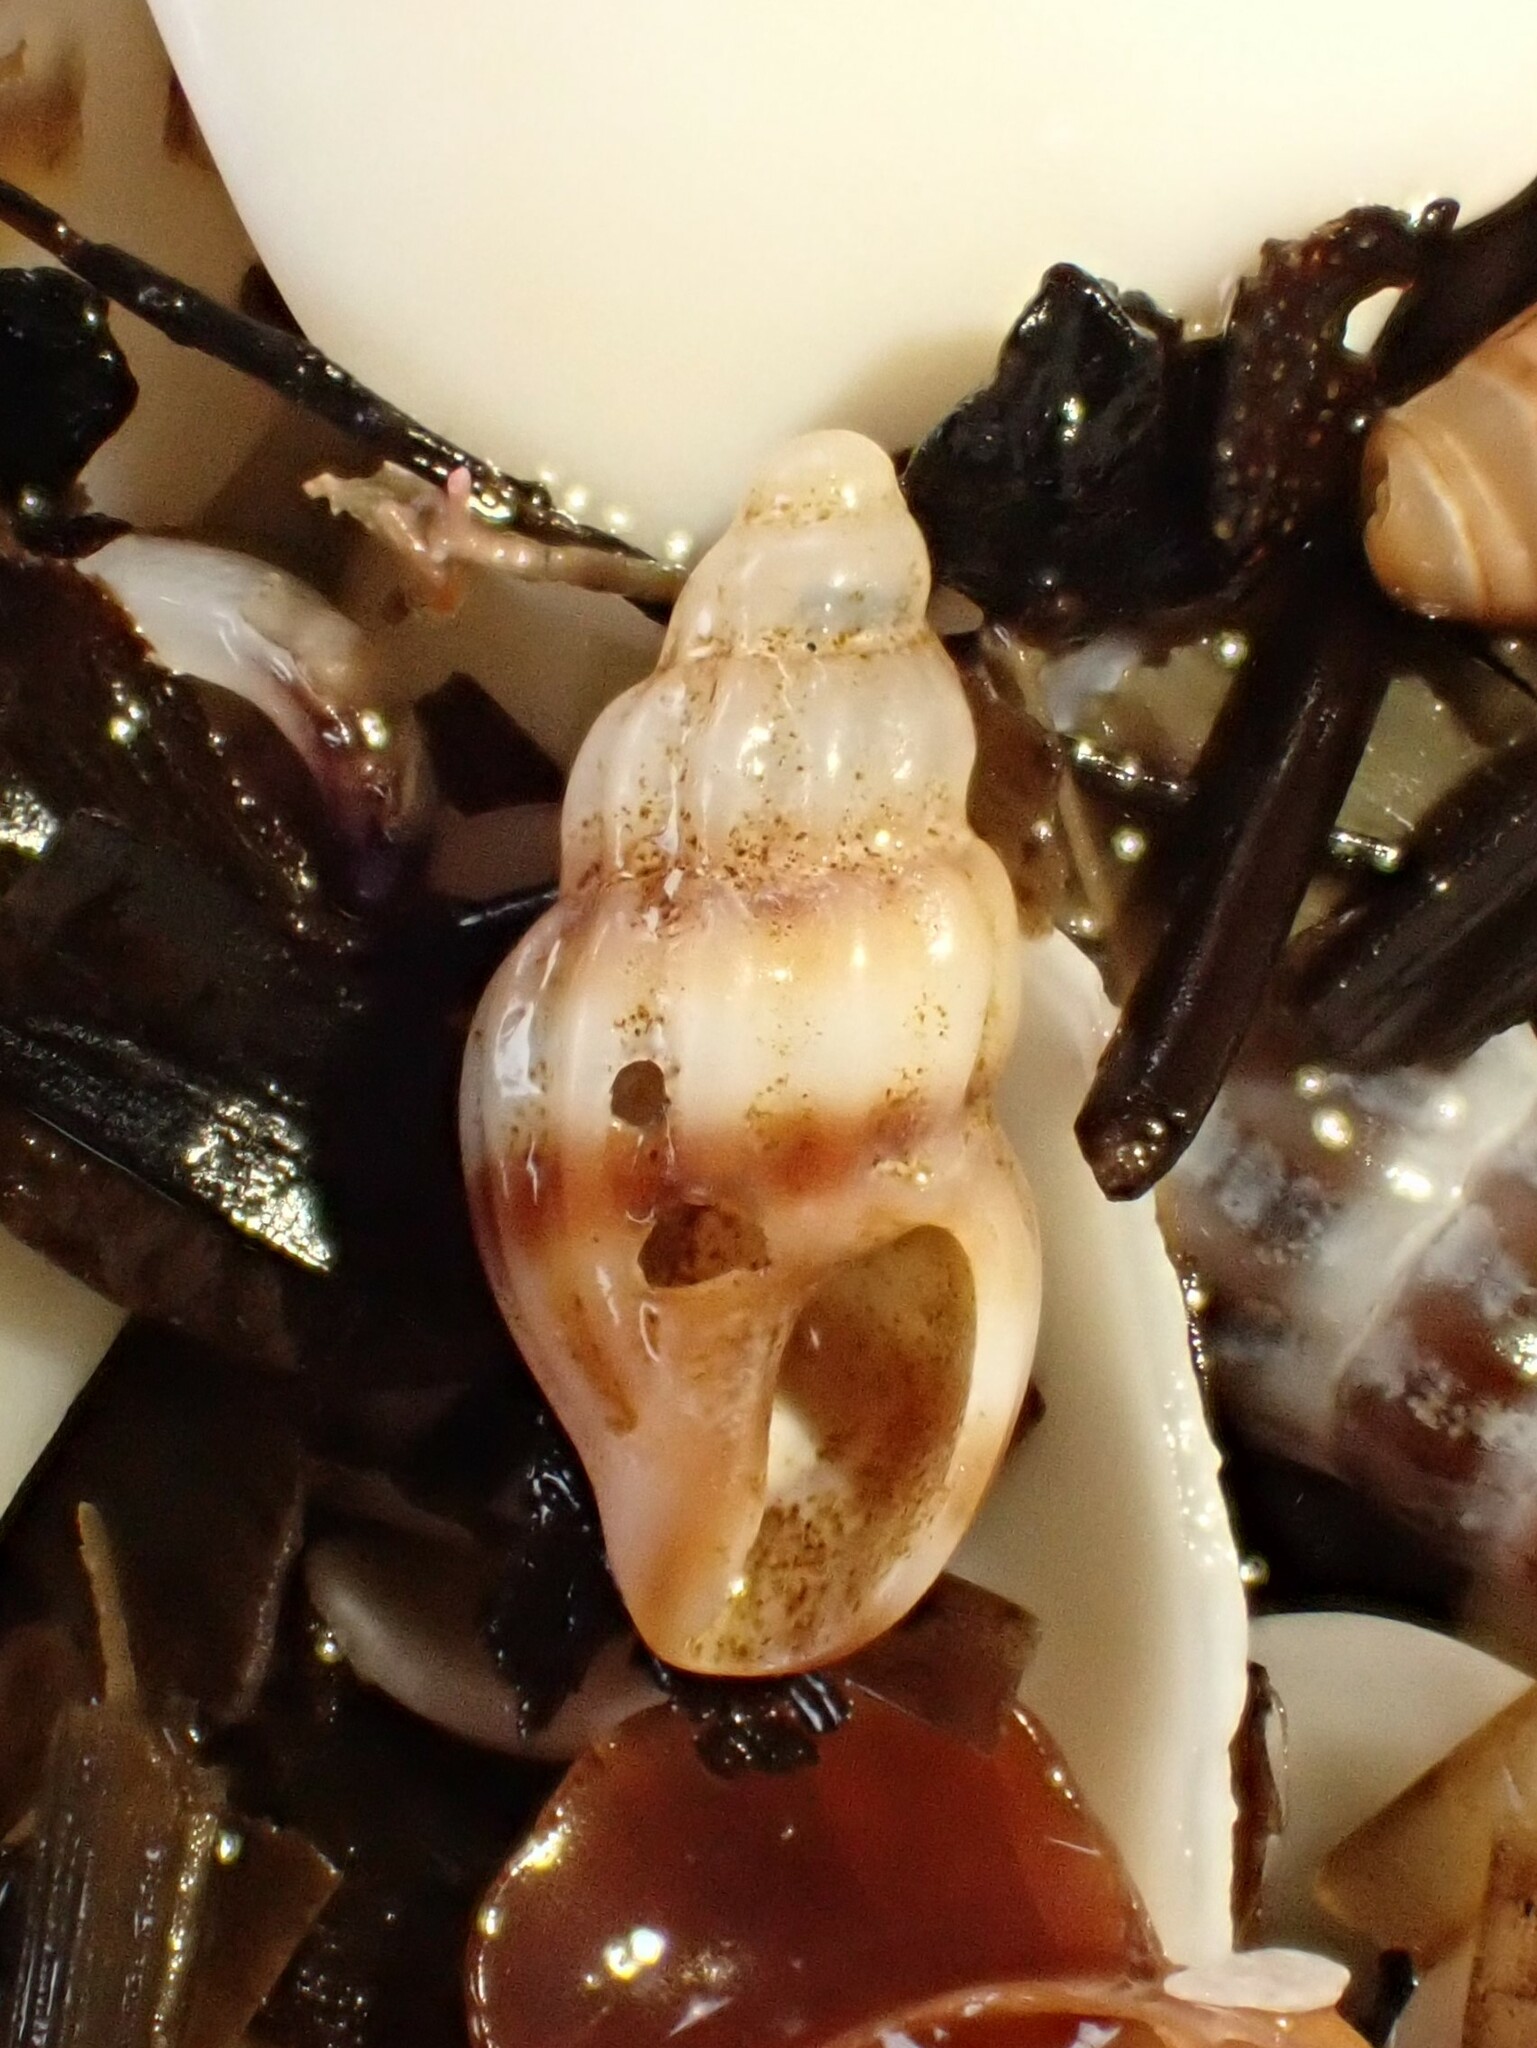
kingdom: Animalia
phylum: Mollusca
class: Gastropoda
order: Neogastropoda
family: Mangeliidae
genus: Neoguraleus
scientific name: Neoguraleus sinclairi
